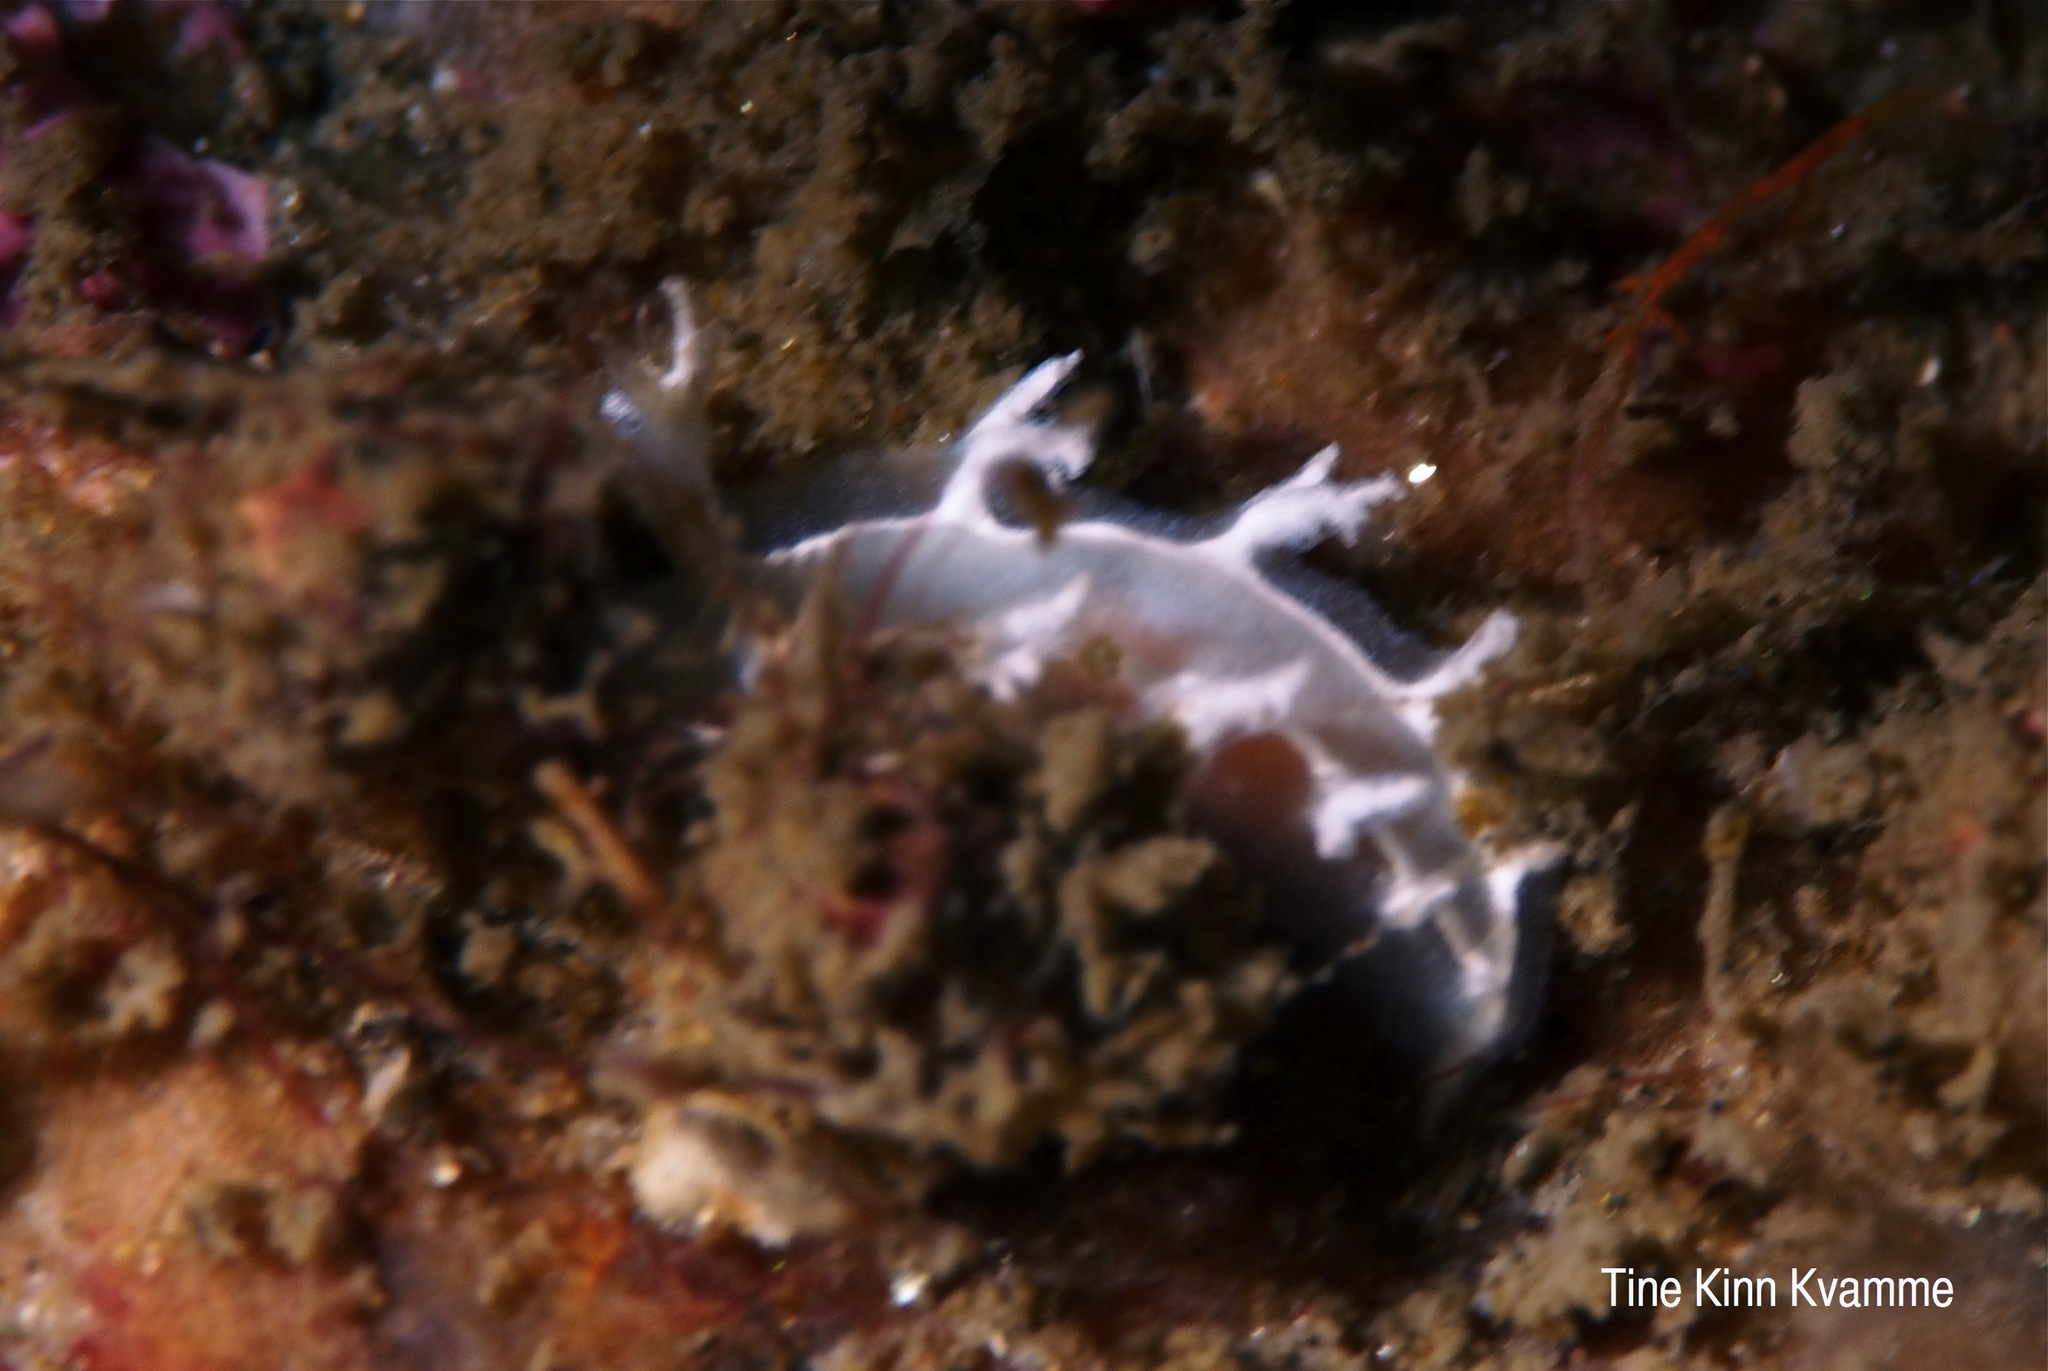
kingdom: Animalia
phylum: Mollusca
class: Gastropoda
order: Nudibranchia
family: Tritoniidae
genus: Duvaucelia
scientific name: Duvaucelia lineata
